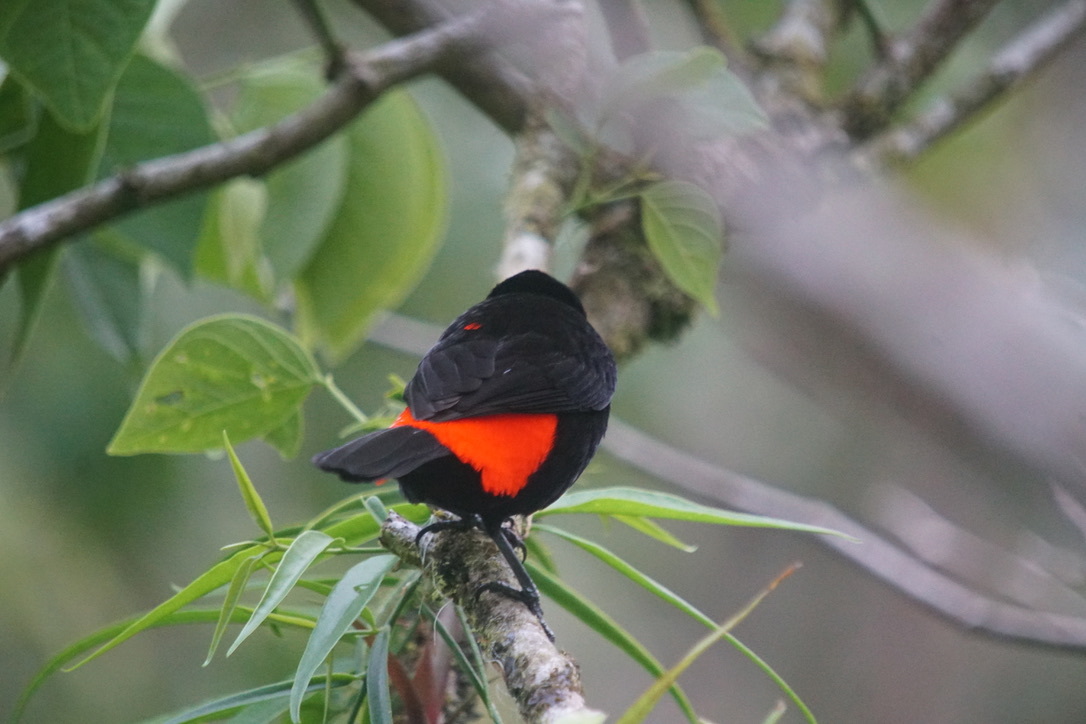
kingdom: Animalia
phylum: Chordata
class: Aves
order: Passeriformes
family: Thraupidae
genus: Ramphocelus
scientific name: Ramphocelus passerinii
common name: Passerini's tanager
